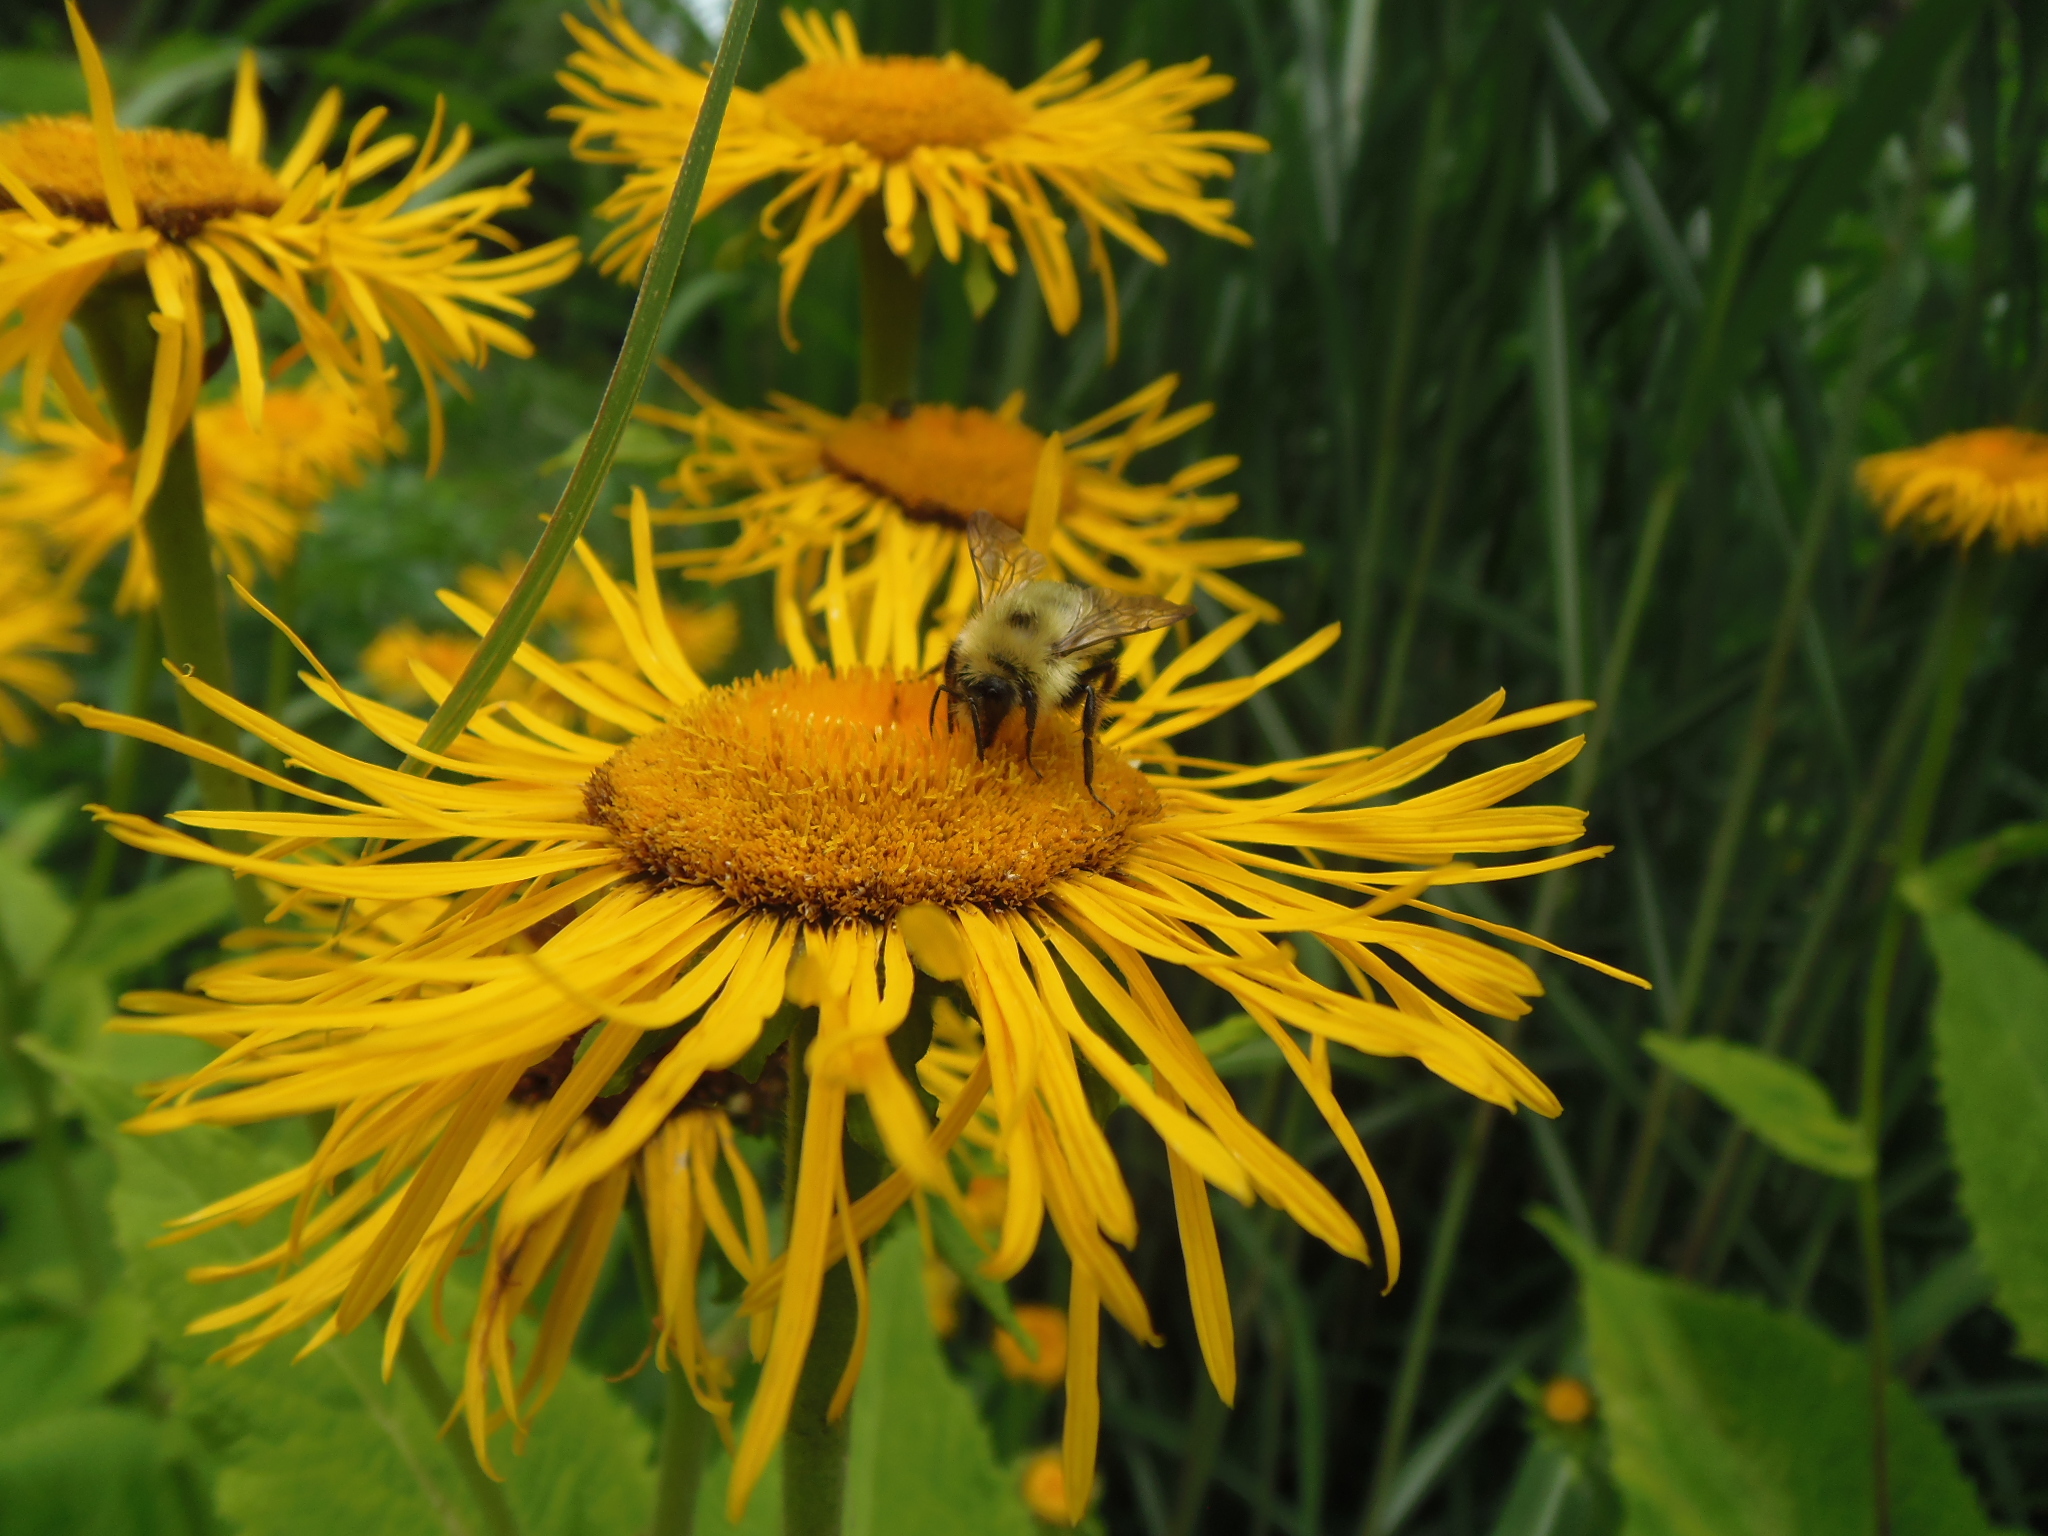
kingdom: Animalia
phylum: Arthropoda
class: Insecta
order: Hymenoptera
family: Apidae
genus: Bombus
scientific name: Bombus bimaculatus
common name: Two-spotted bumble bee
